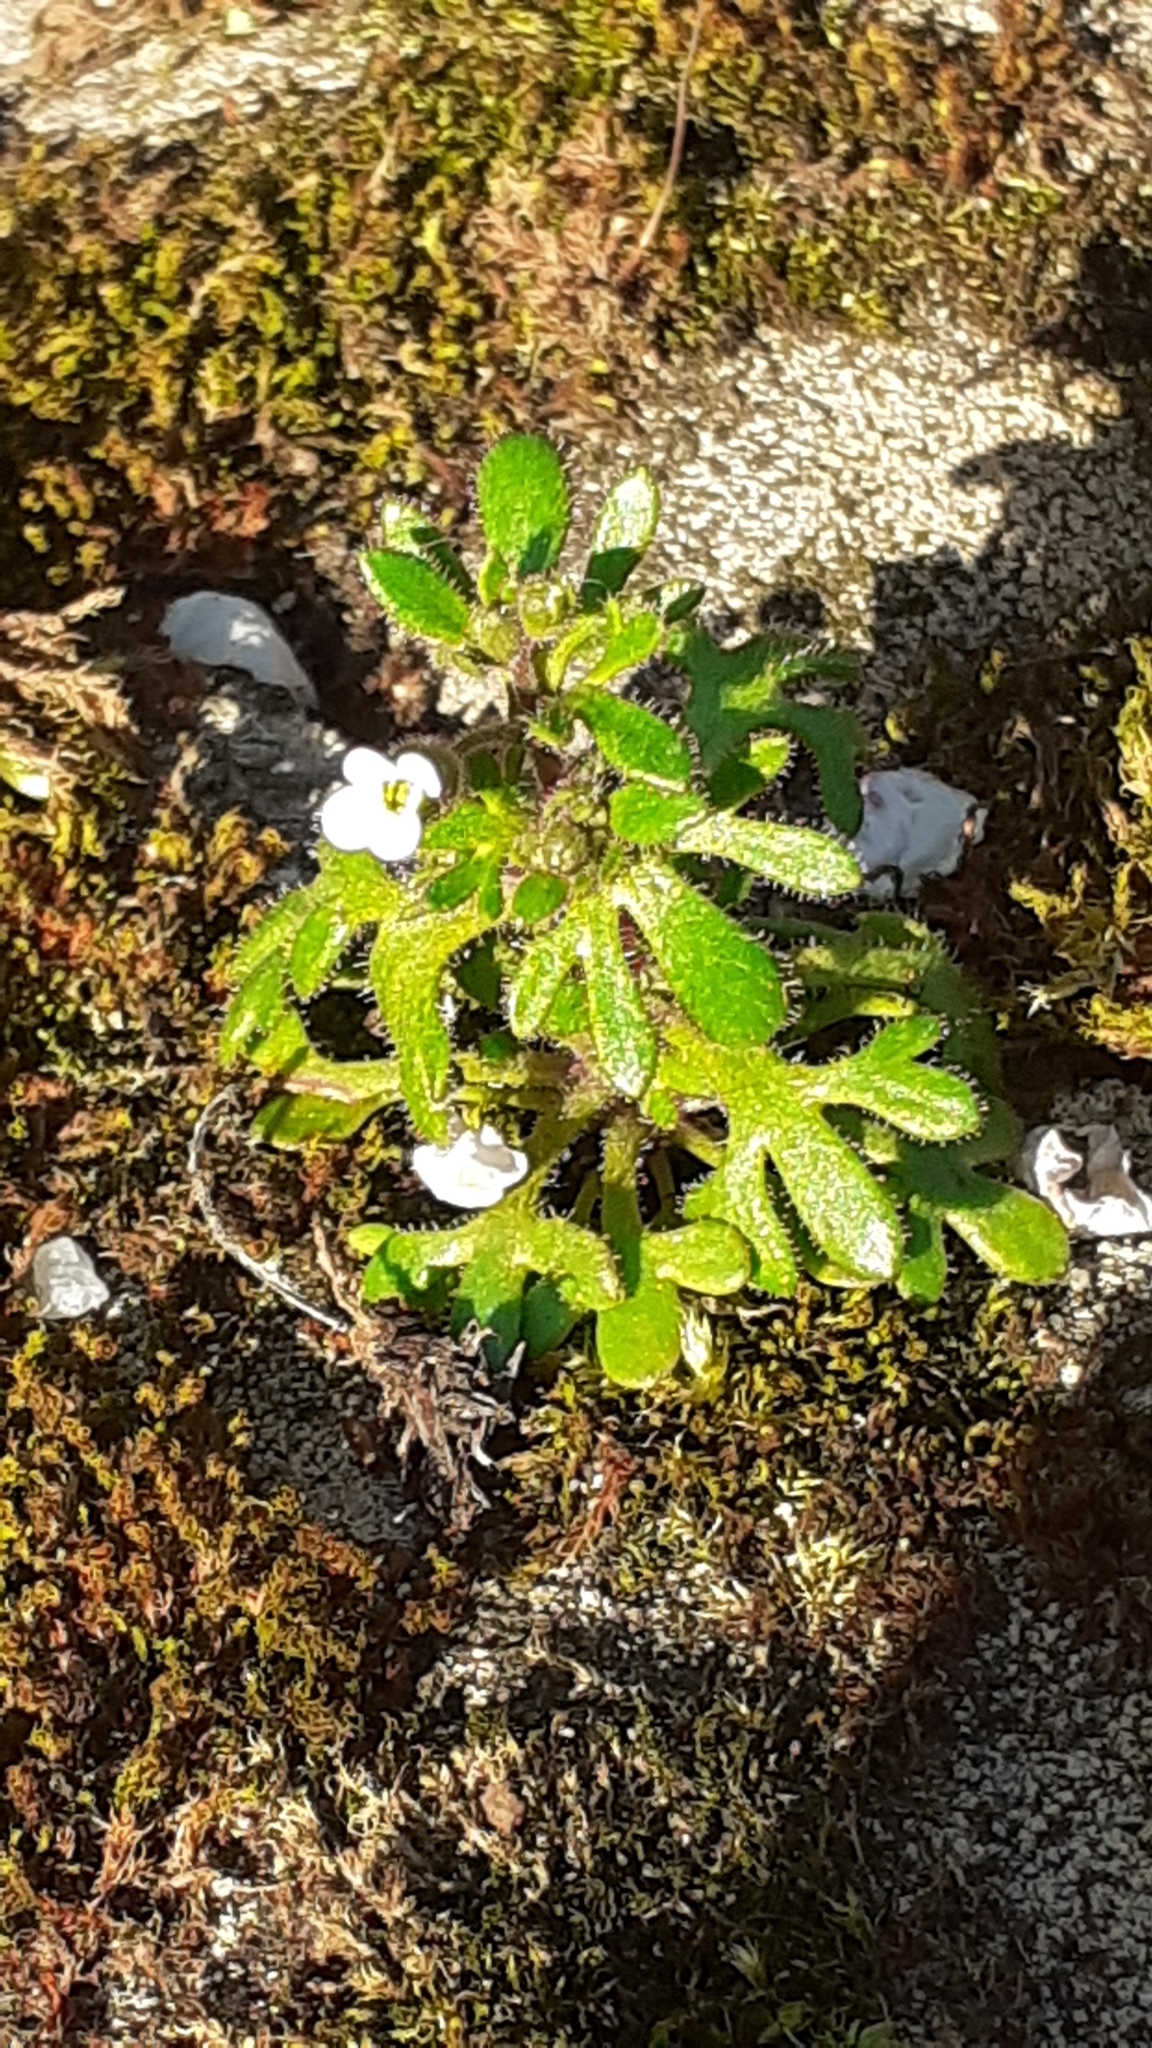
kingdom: Plantae
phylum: Tracheophyta
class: Magnoliopsida
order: Saxifragales
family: Saxifragaceae
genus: Saxifraga
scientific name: Saxifraga tridactylites
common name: Rue-leaved saxifrage
